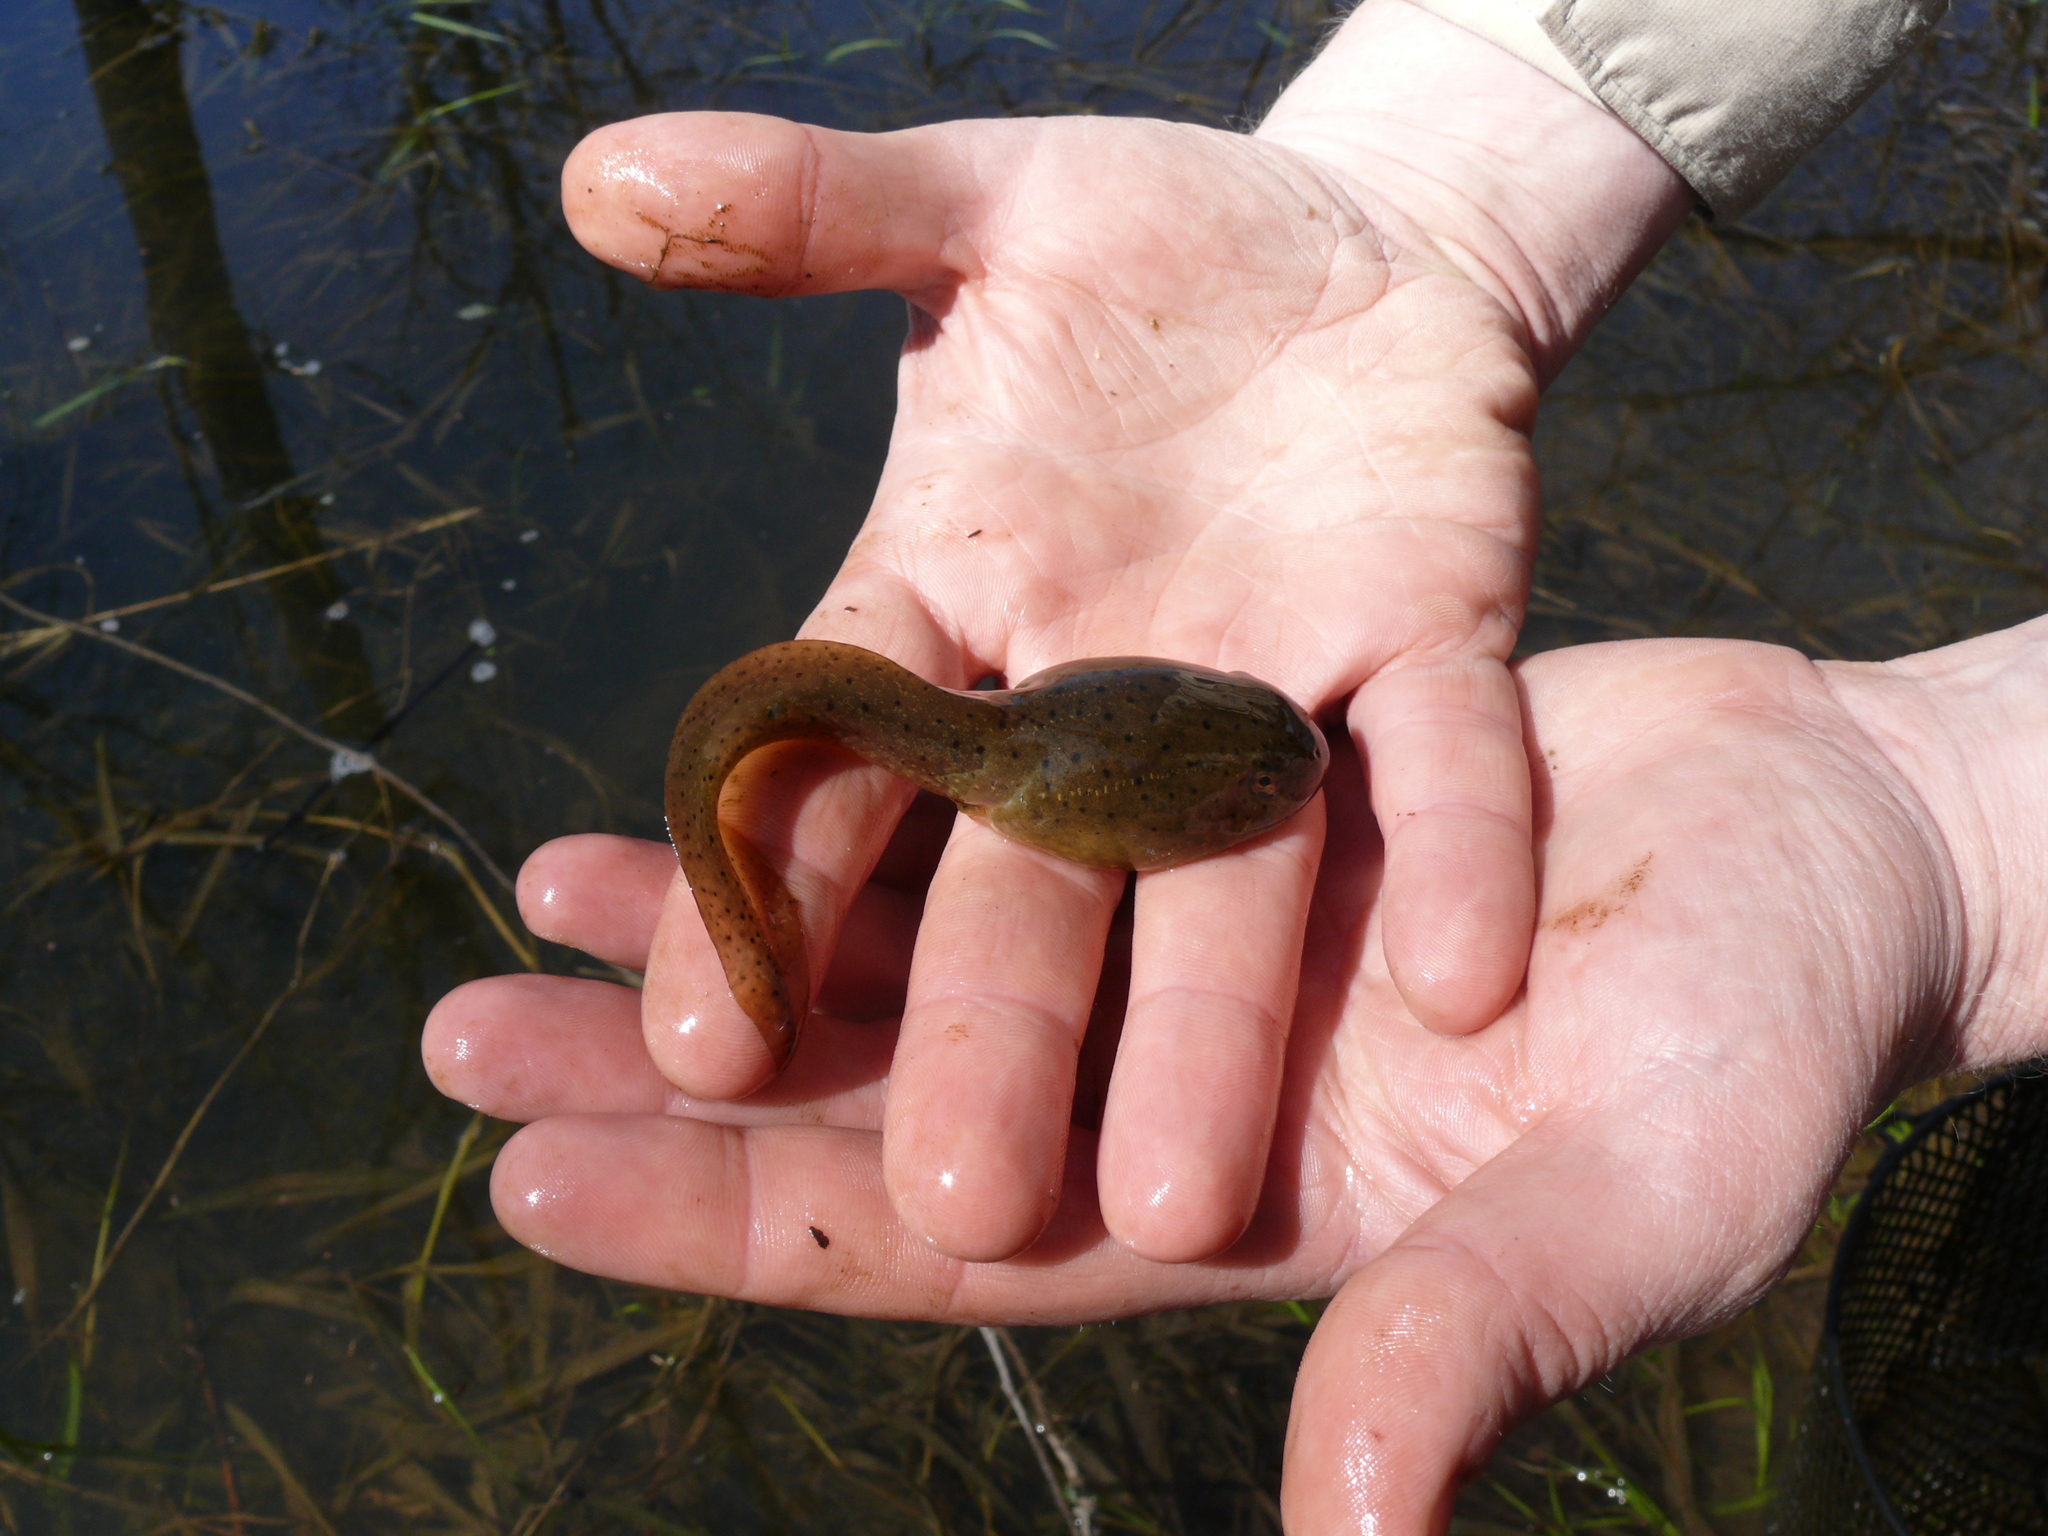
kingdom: Animalia
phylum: Chordata
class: Amphibia
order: Anura
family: Ranidae
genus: Lithobates
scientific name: Lithobates catesbeianus
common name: American bullfrog
